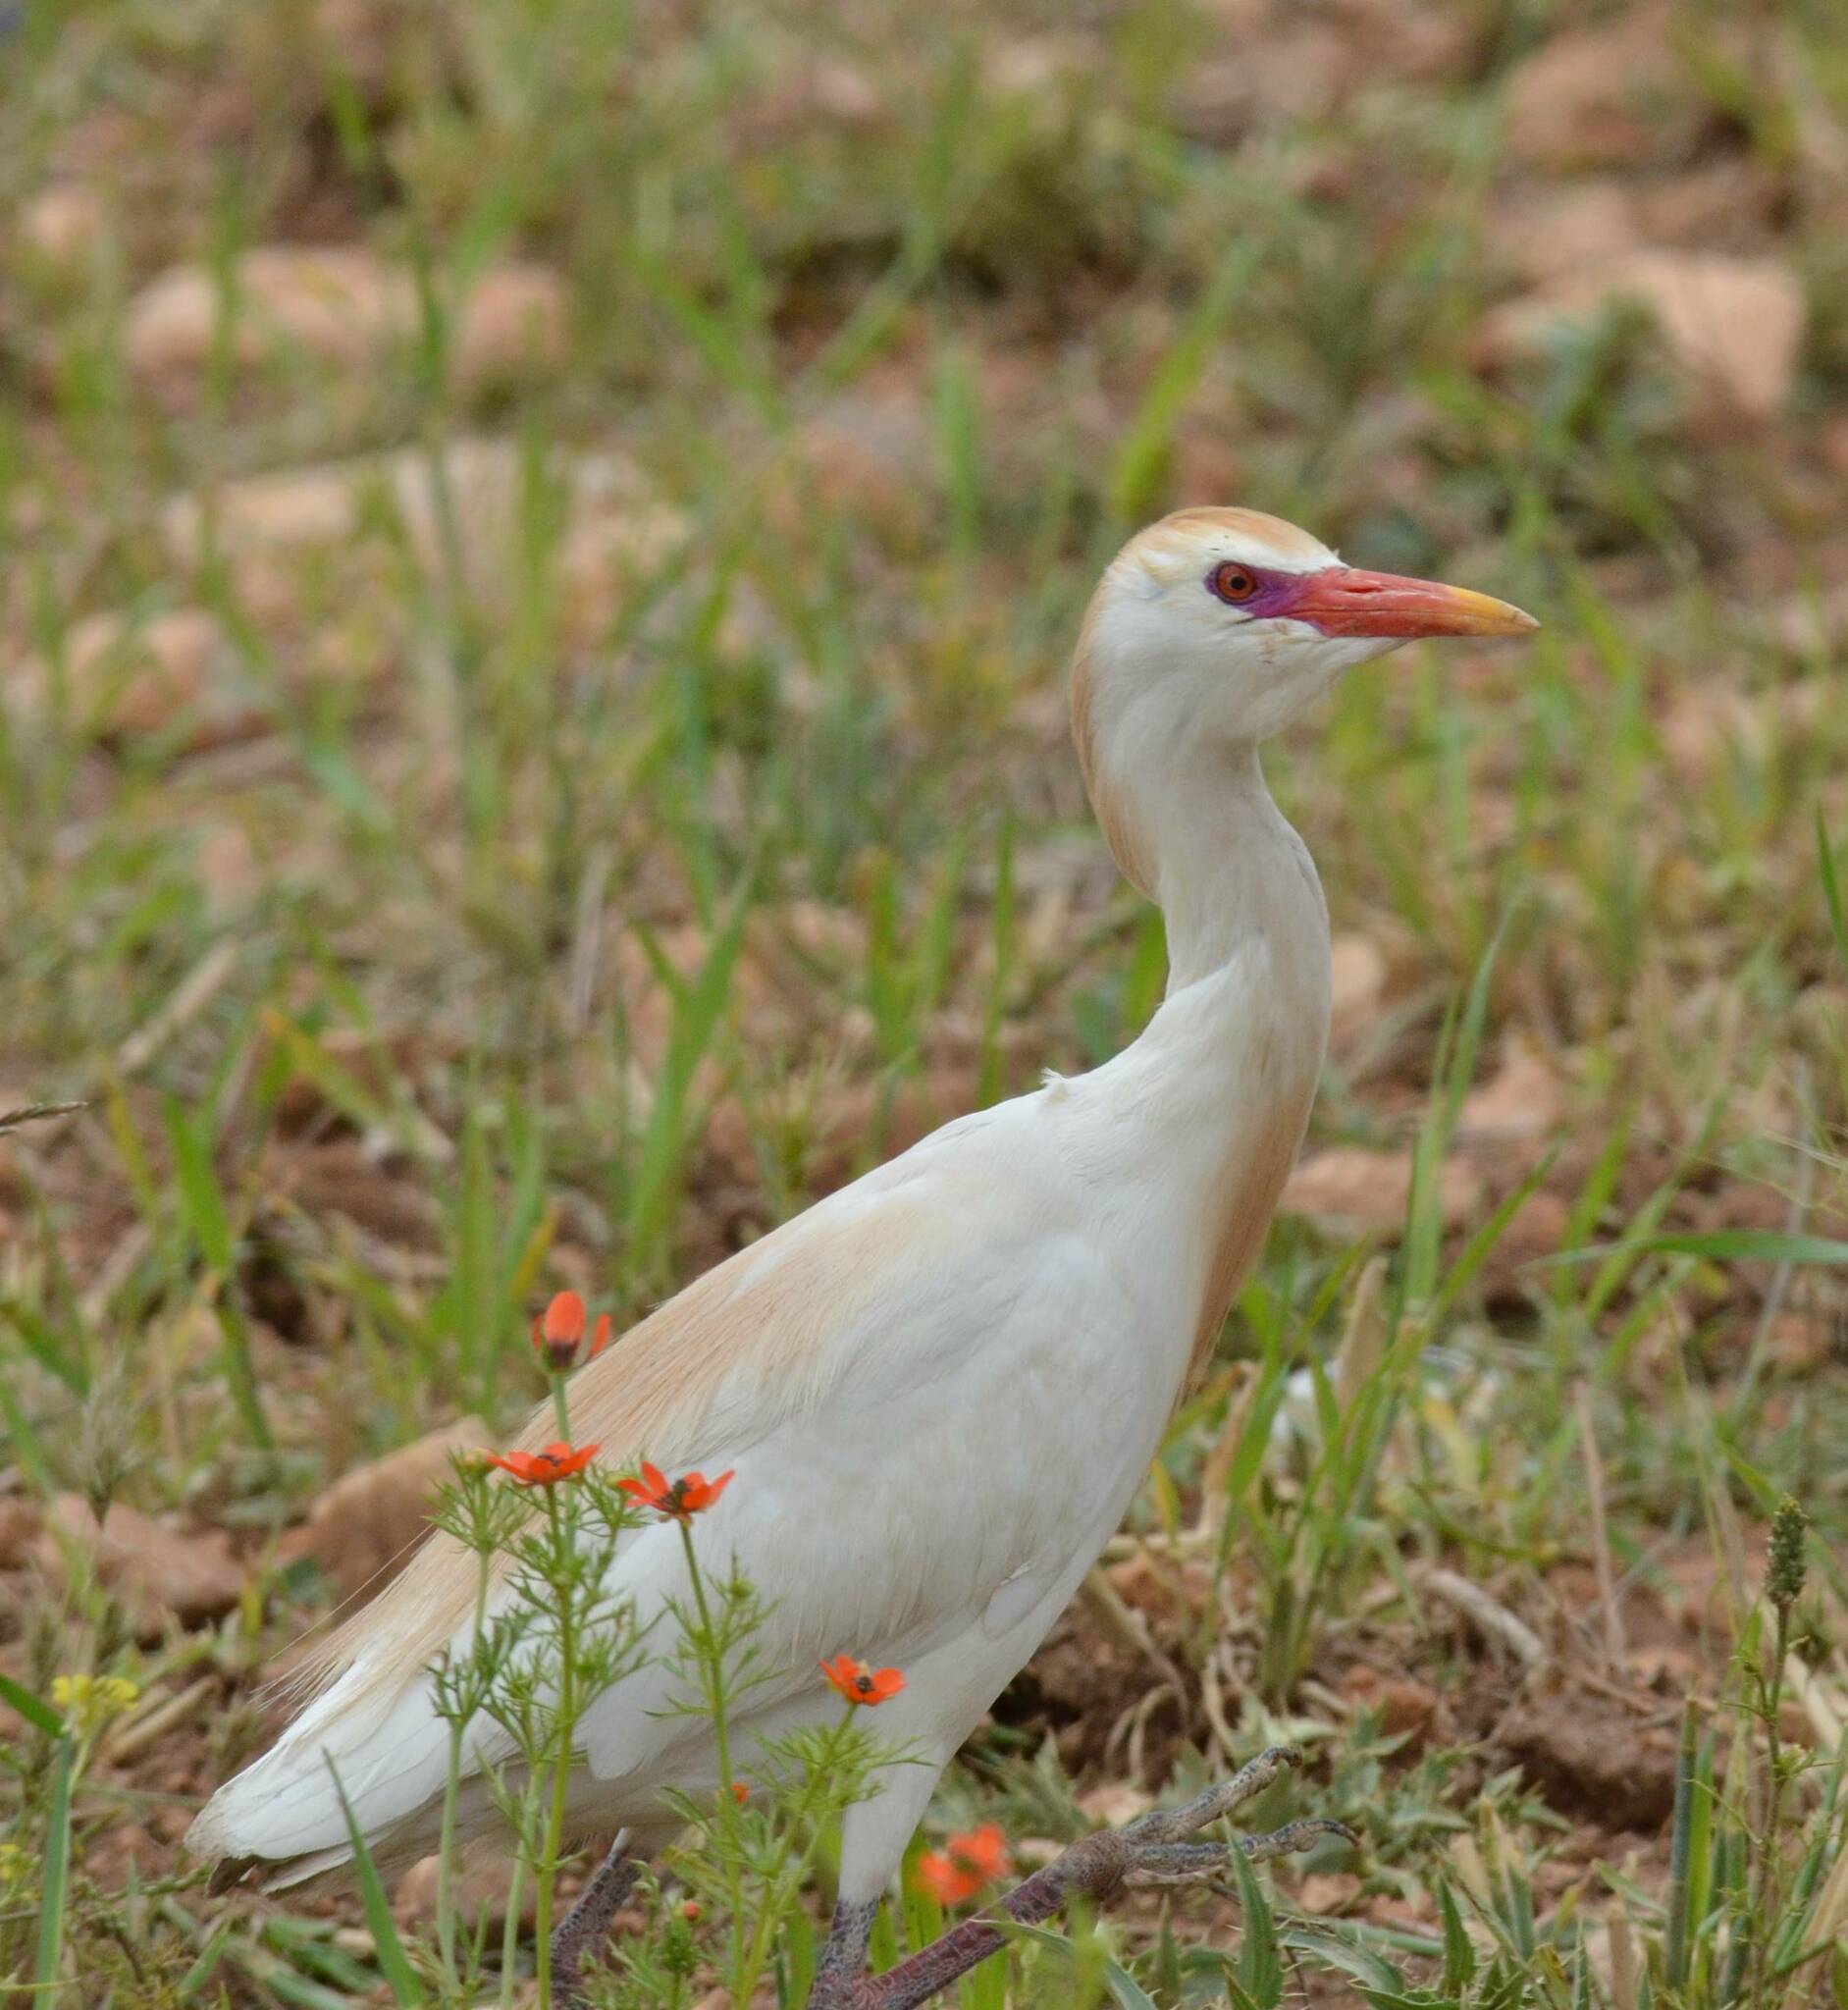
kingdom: Animalia
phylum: Chordata
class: Aves
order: Pelecaniformes
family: Ardeidae
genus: Bubulcus
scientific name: Bubulcus ibis
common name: Cattle egret
